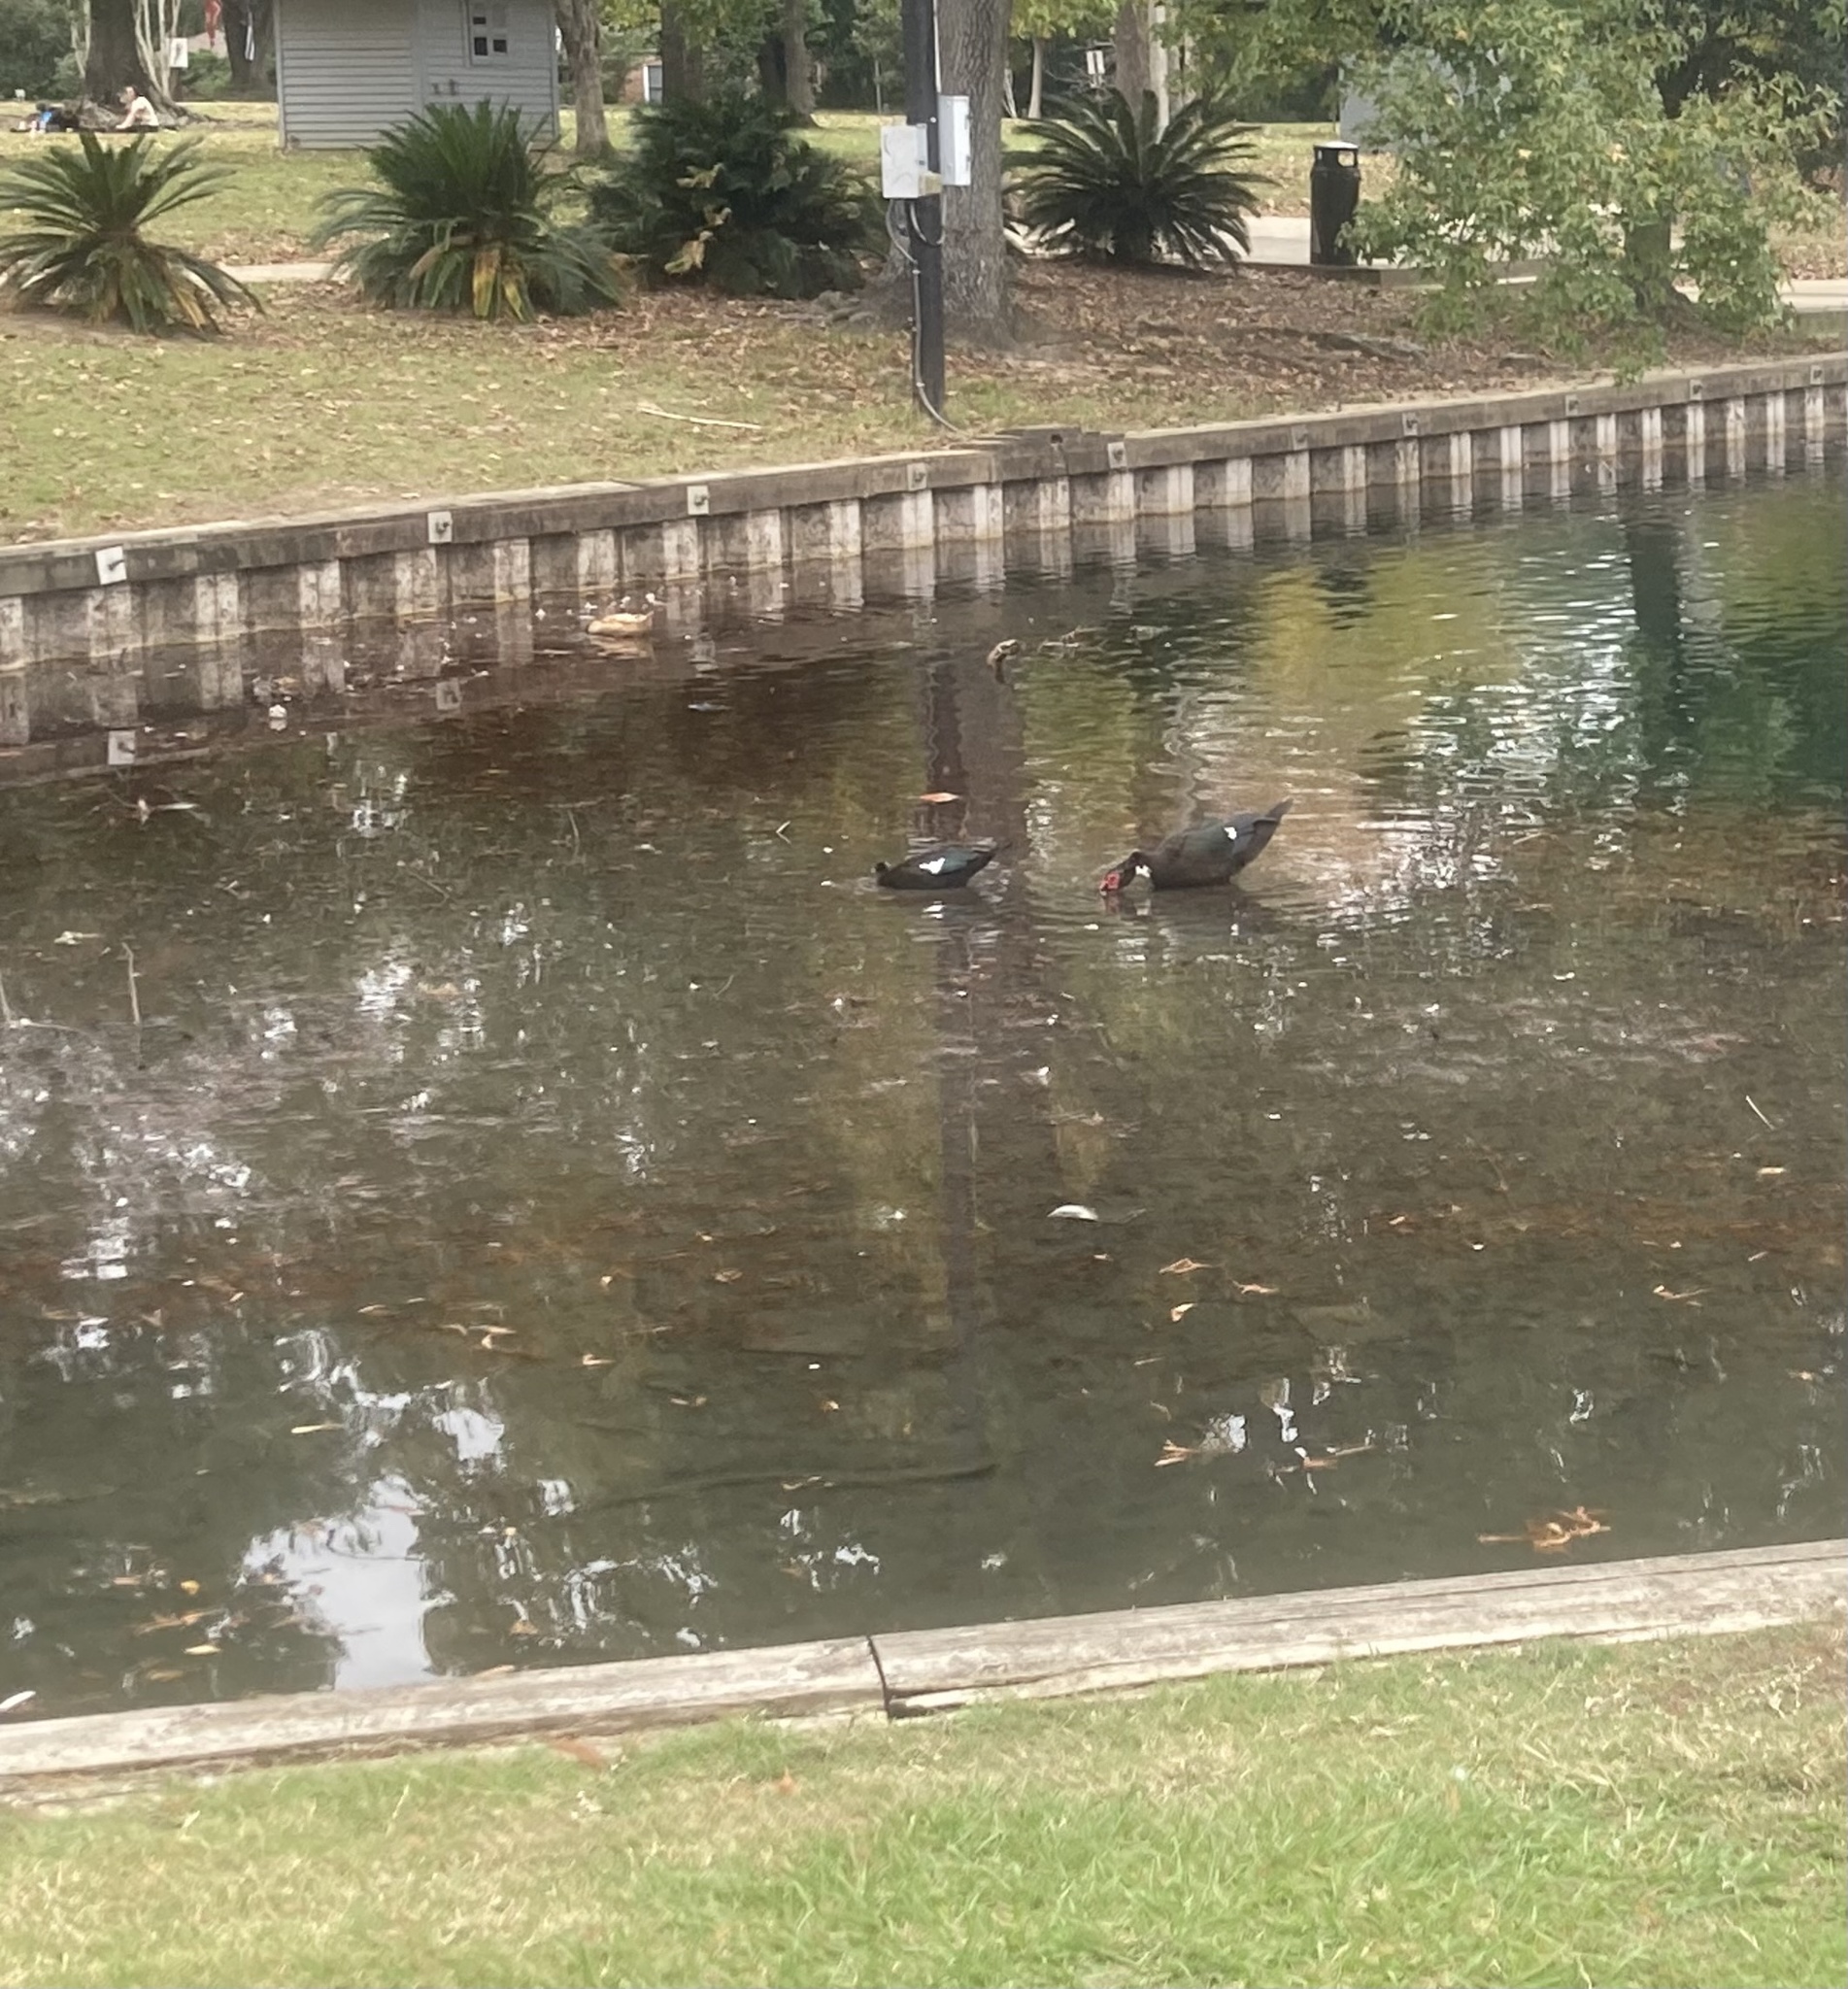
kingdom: Animalia
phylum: Chordata
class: Aves
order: Anseriformes
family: Anatidae
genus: Cairina
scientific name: Cairina moschata
